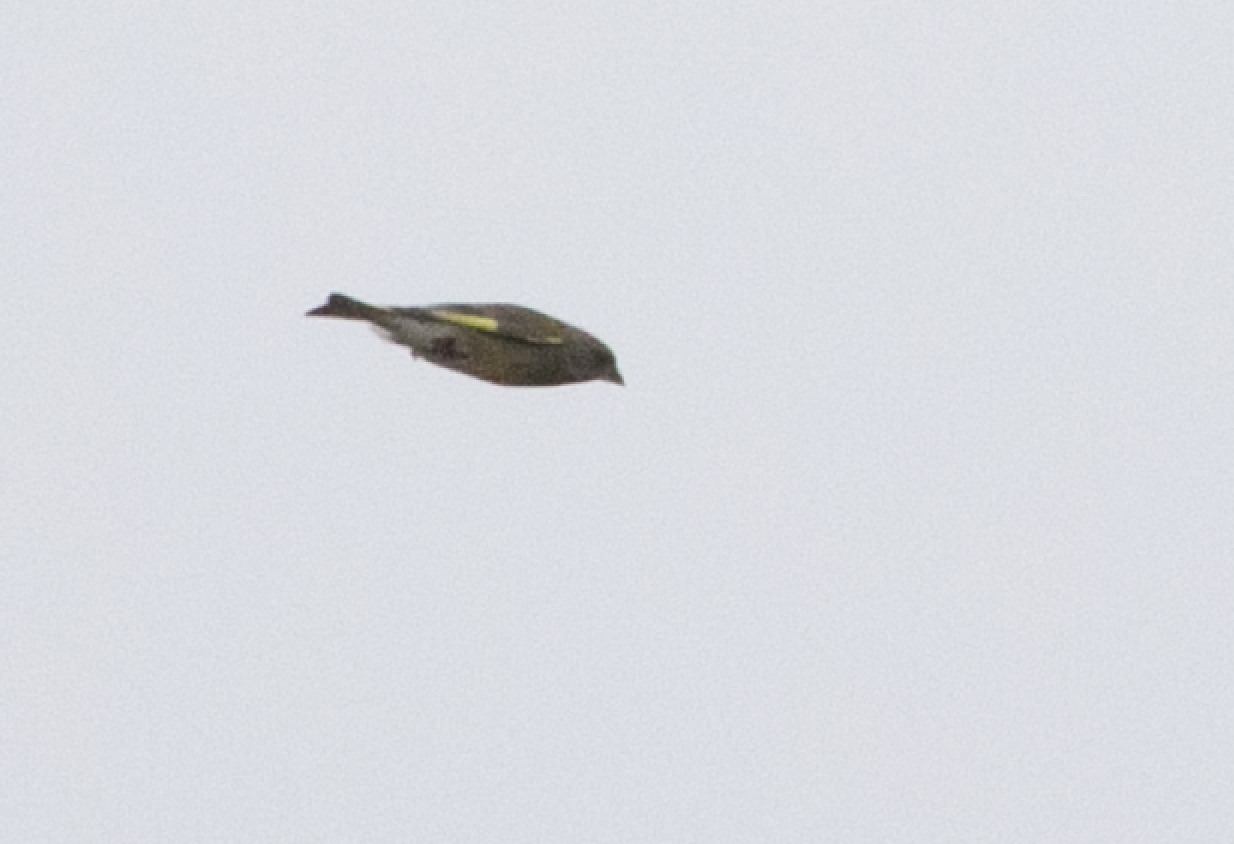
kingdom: Plantae
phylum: Tracheophyta
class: Liliopsida
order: Poales
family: Poaceae
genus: Chloris
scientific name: Chloris chloris
